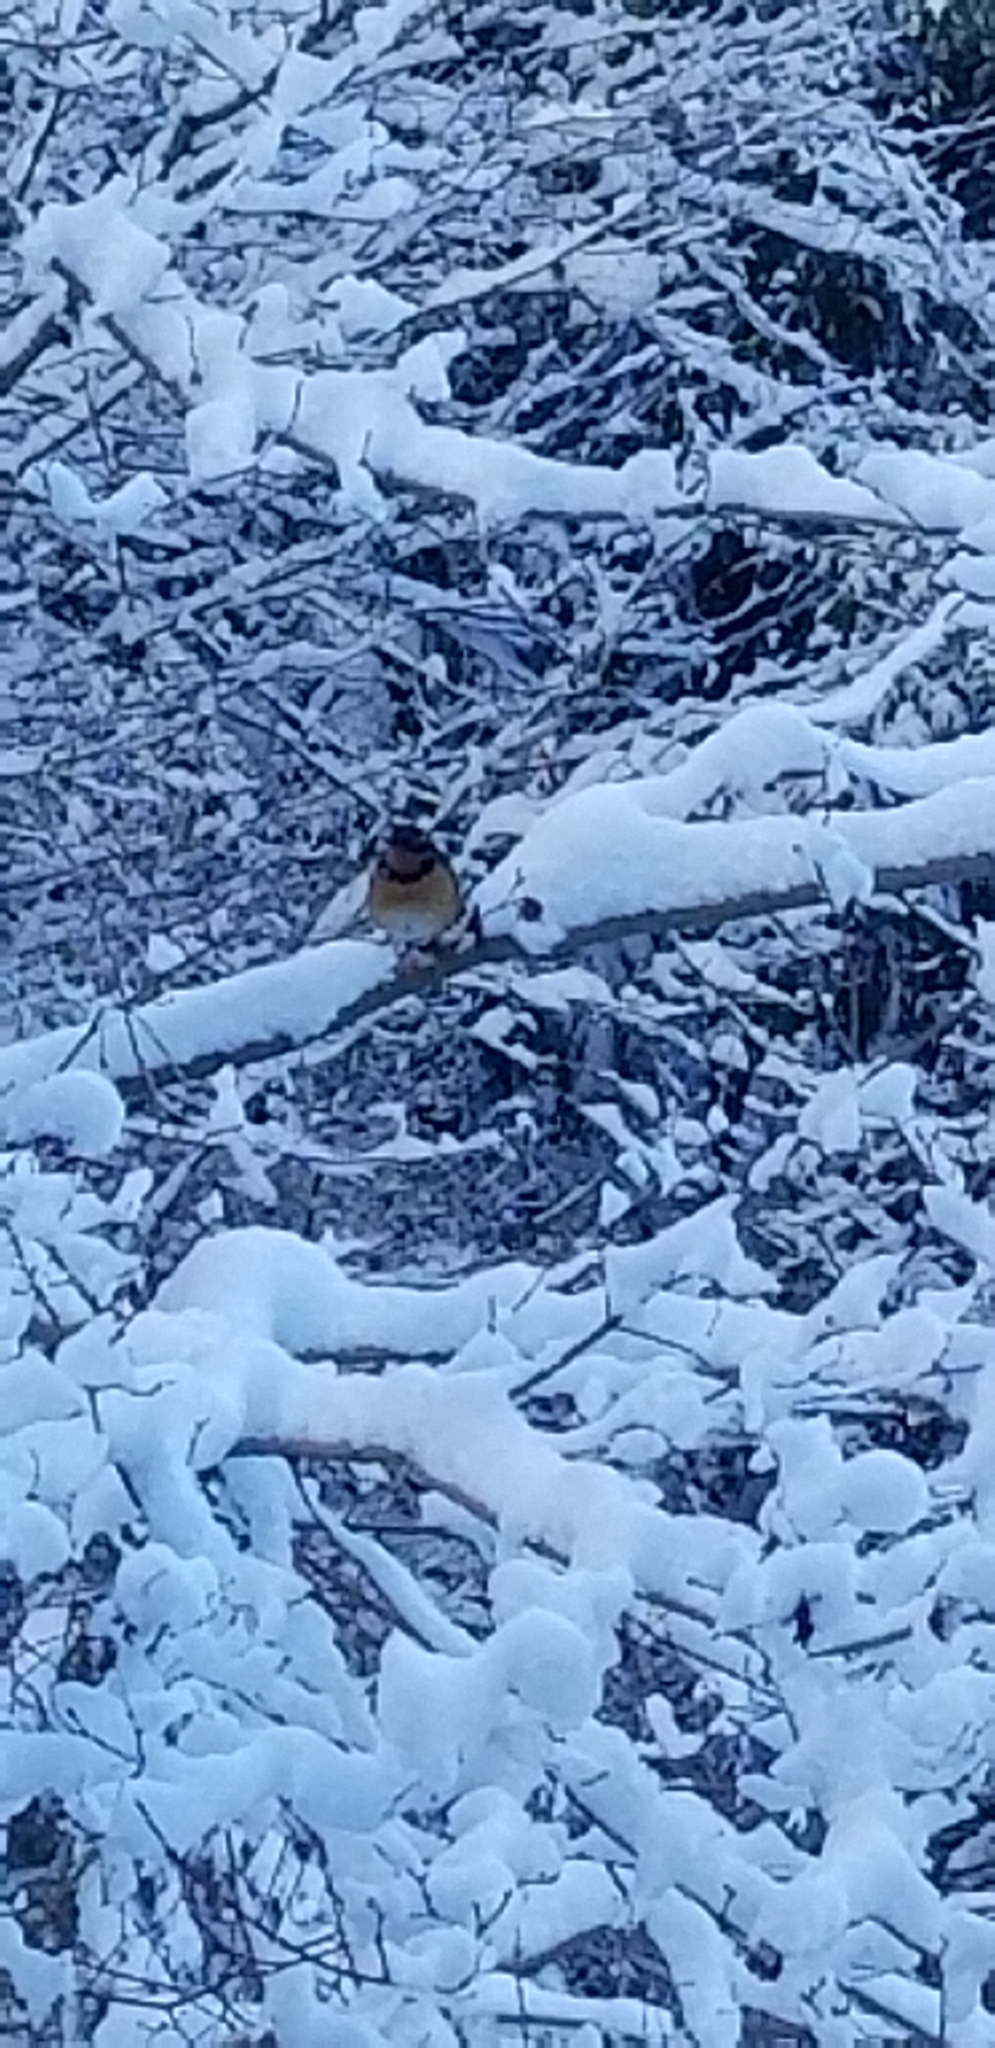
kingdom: Animalia
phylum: Chordata
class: Aves
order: Passeriformes
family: Turdidae
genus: Ixoreus
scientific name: Ixoreus naevius
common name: Varied thrush
